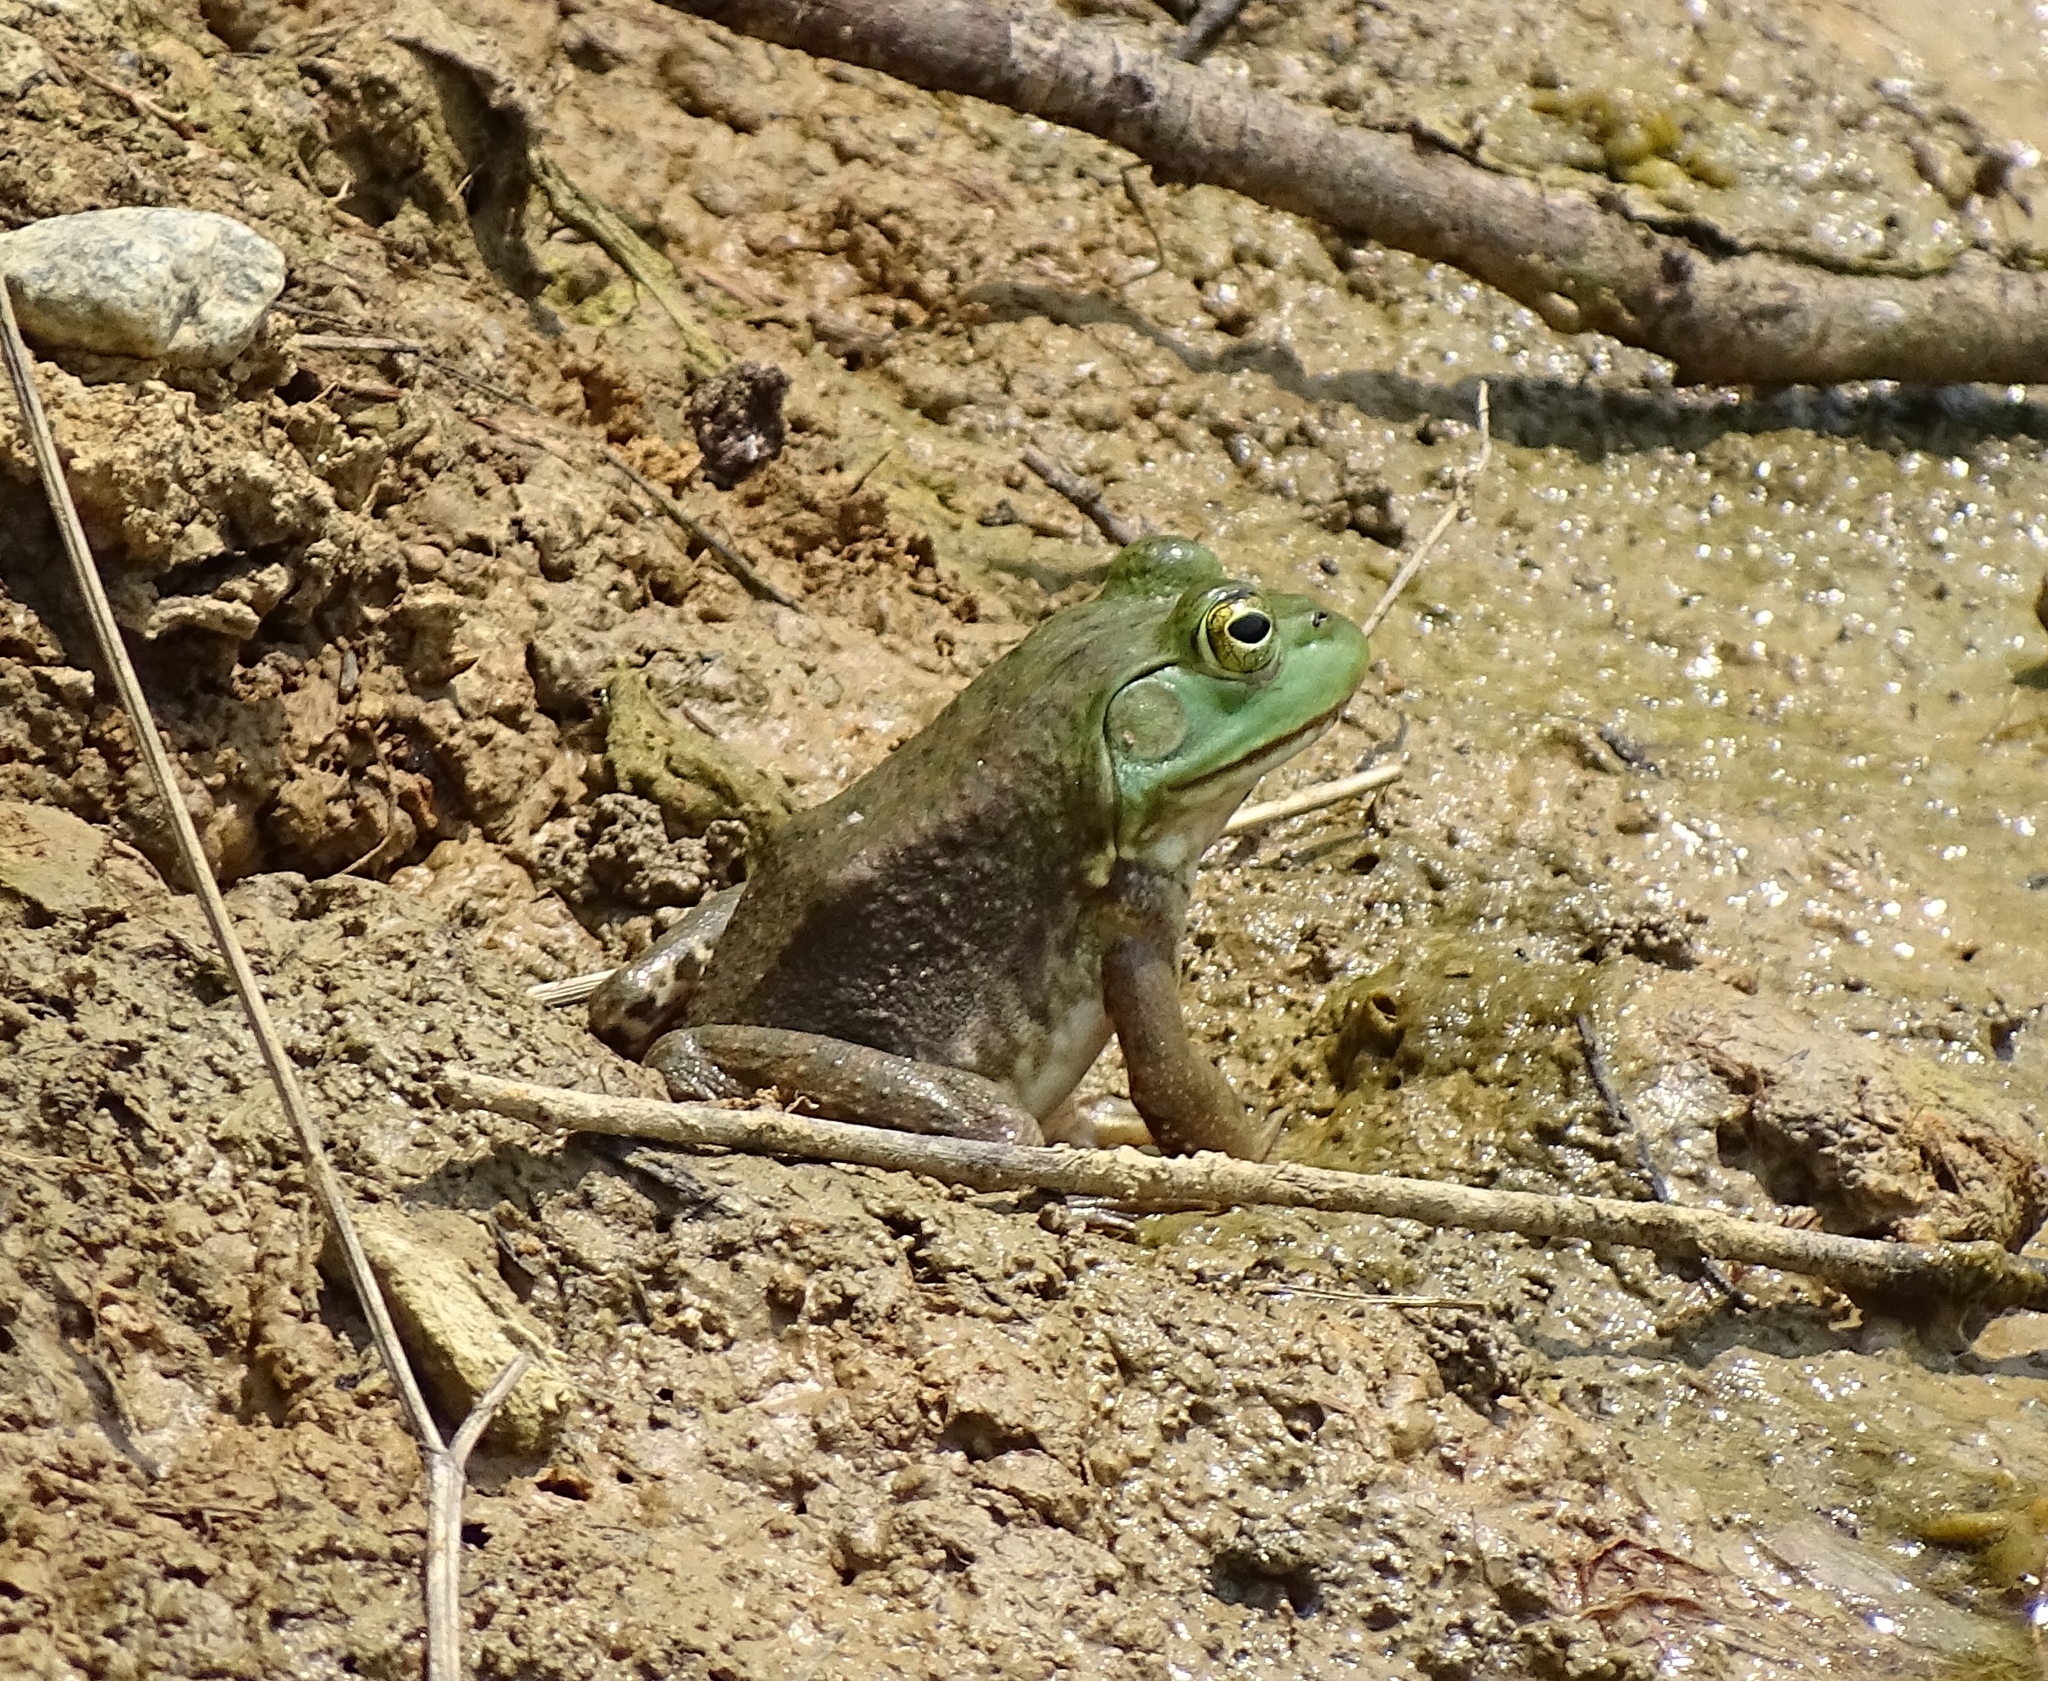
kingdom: Animalia
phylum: Chordata
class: Amphibia
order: Anura
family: Ranidae
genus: Lithobates
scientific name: Lithobates catesbeianus
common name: American bullfrog
